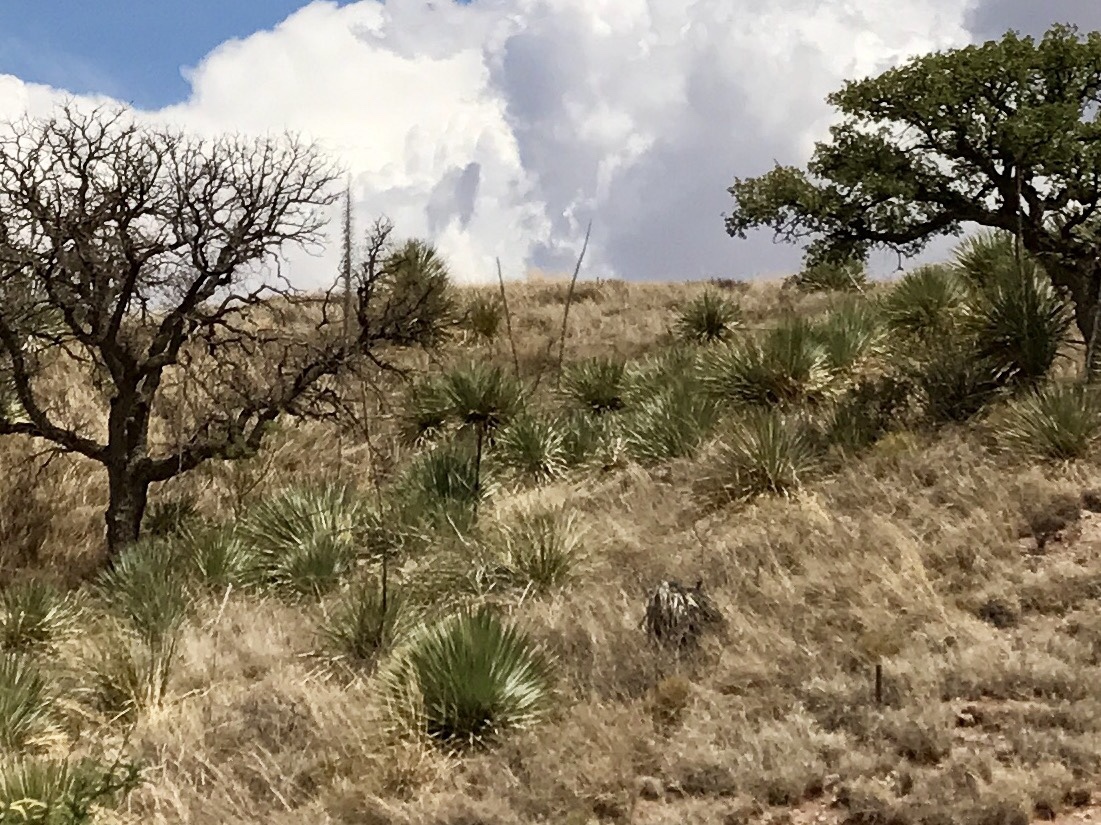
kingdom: Plantae
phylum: Tracheophyta
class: Liliopsida
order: Asparagales
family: Asparagaceae
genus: Dasylirion
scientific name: Dasylirion wheeleri
